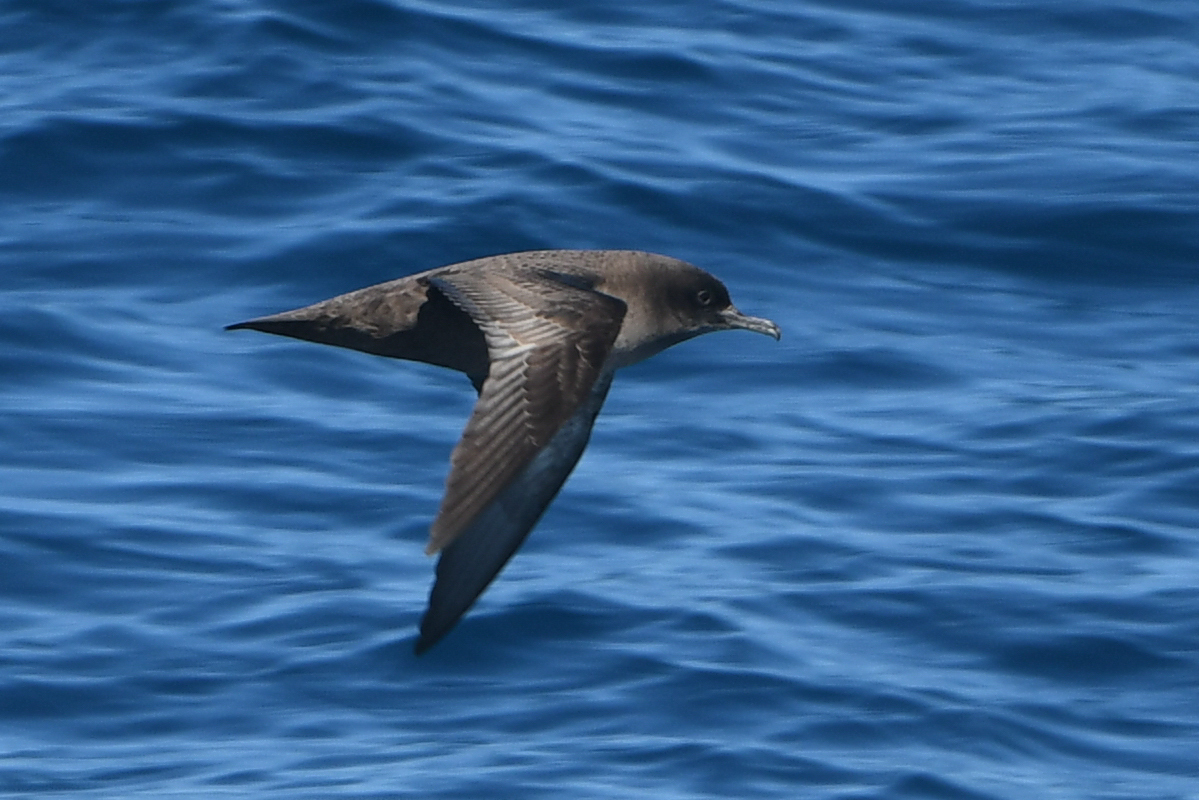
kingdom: Animalia
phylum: Chordata
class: Aves
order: Procellariiformes
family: Procellariidae
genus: Puffinus
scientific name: Puffinus griseus
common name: Sooty shearwater
